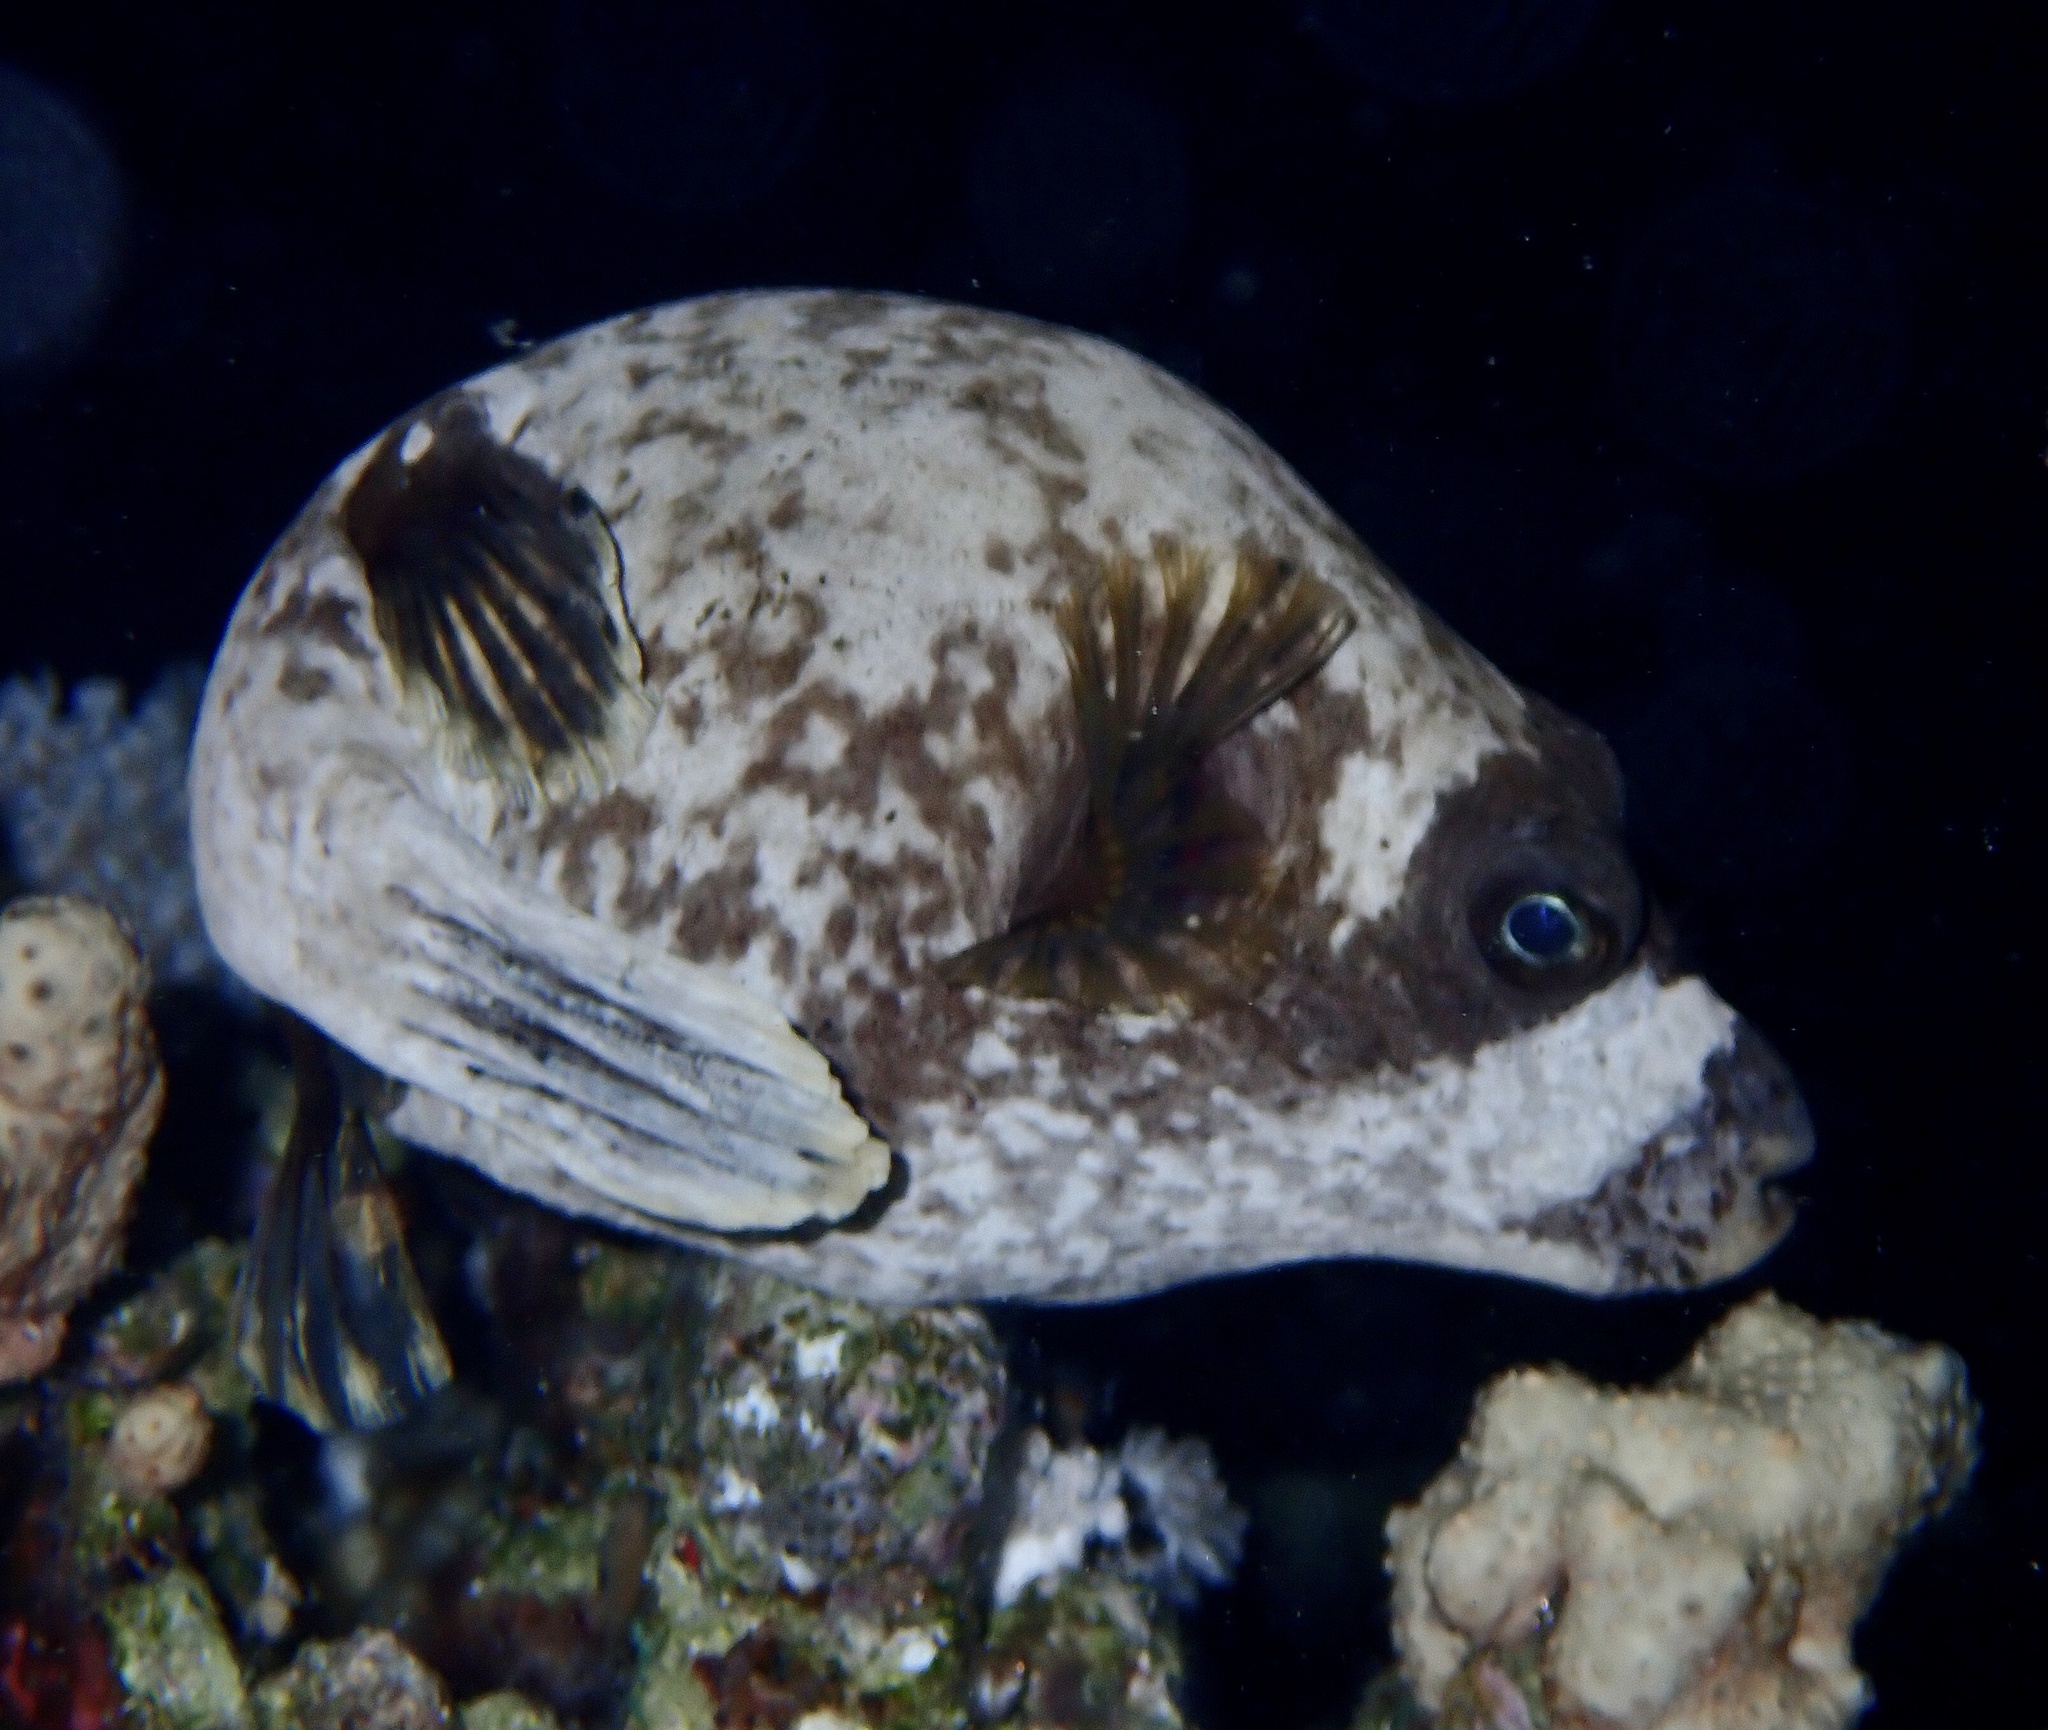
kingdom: Animalia
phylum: Chordata
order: Tetraodontiformes
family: Tetraodontidae
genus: Arothron
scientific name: Arothron diadematus
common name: Masked puffer
